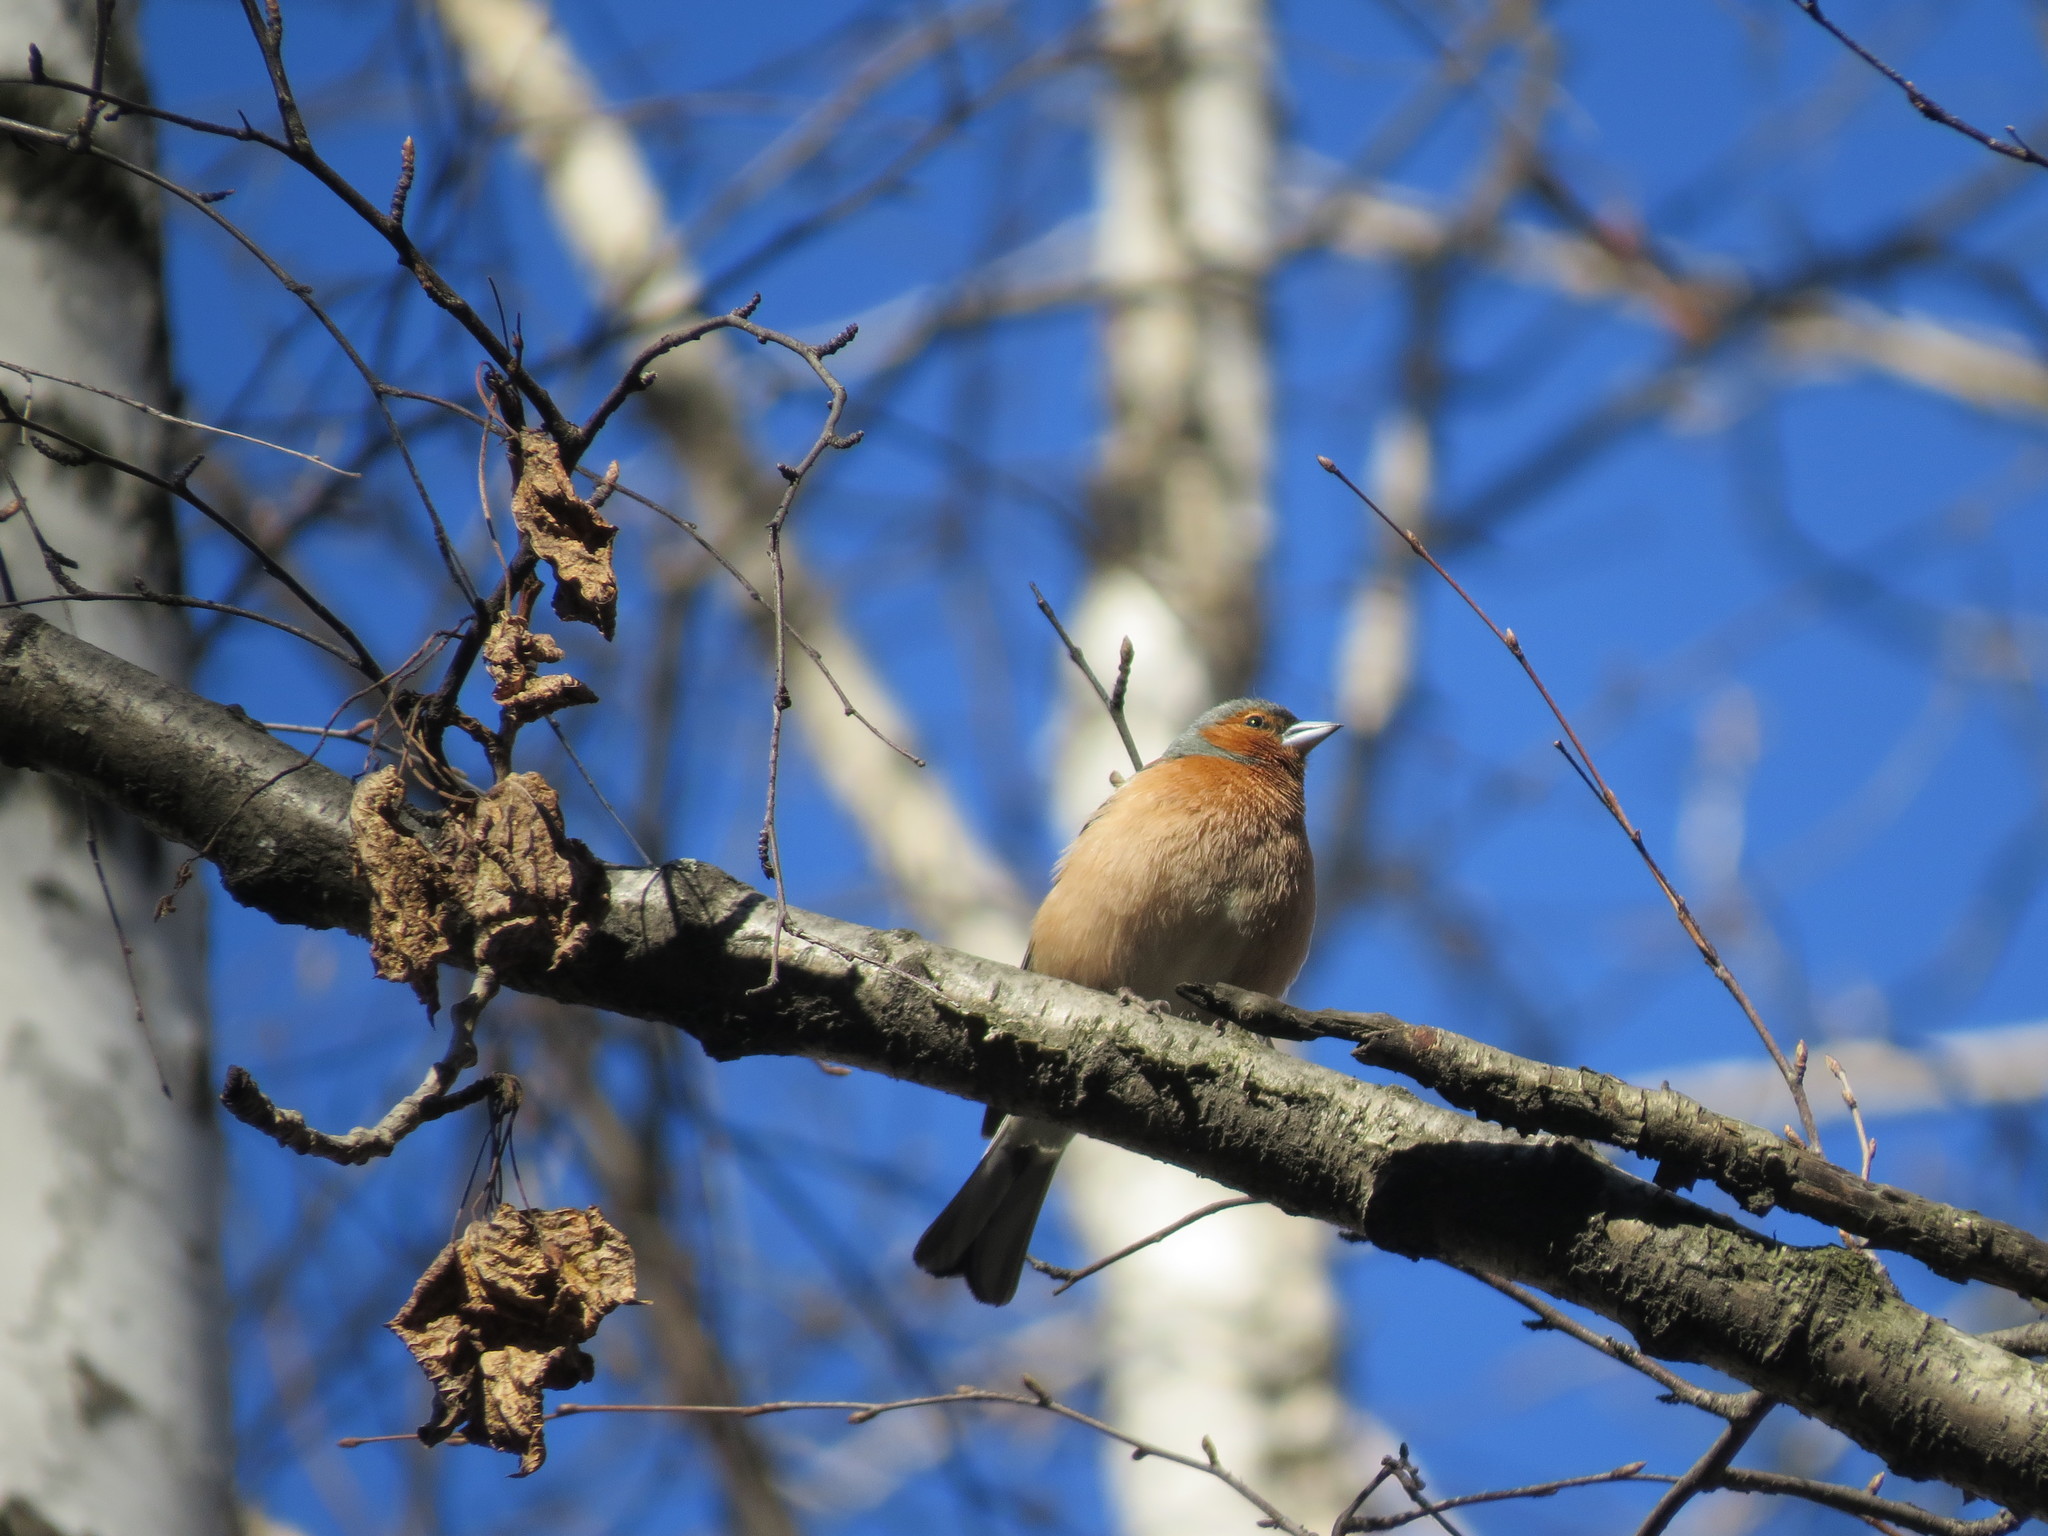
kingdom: Animalia
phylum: Chordata
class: Aves
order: Passeriformes
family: Fringillidae
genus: Fringilla
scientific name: Fringilla coelebs
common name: Common chaffinch
